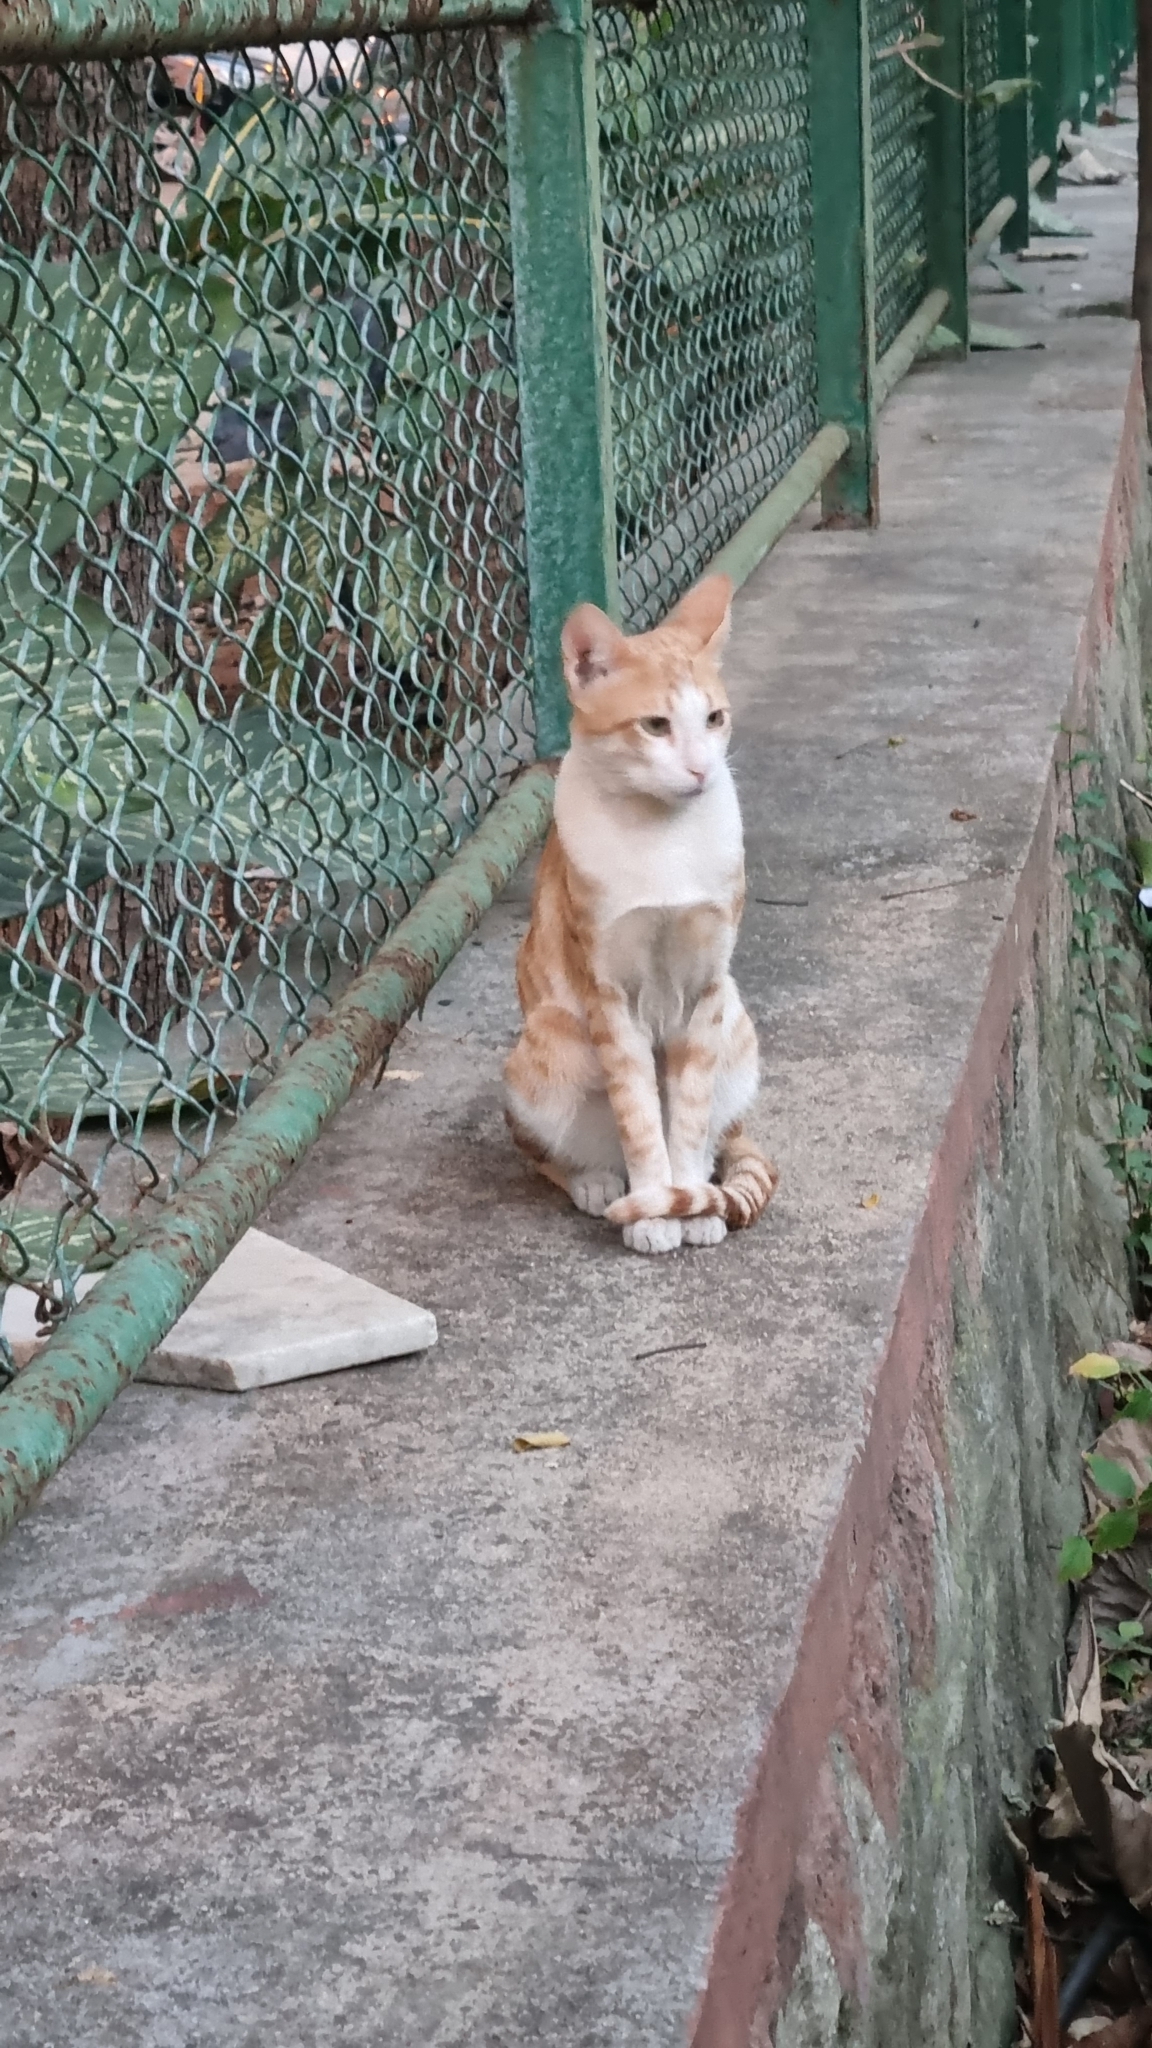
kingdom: Animalia
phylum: Chordata
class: Mammalia
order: Carnivora
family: Felidae
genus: Felis
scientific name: Felis catus
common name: Domestic cat
